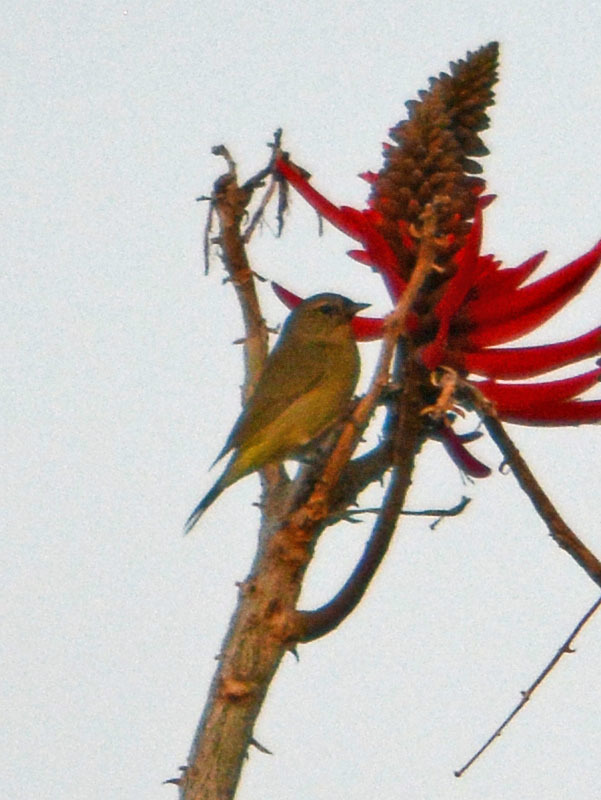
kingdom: Animalia
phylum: Chordata
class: Aves
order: Passeriformes
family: Parulidae
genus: Leiothlypis
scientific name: Leiothlypis celata
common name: Orange-crowned warbler
